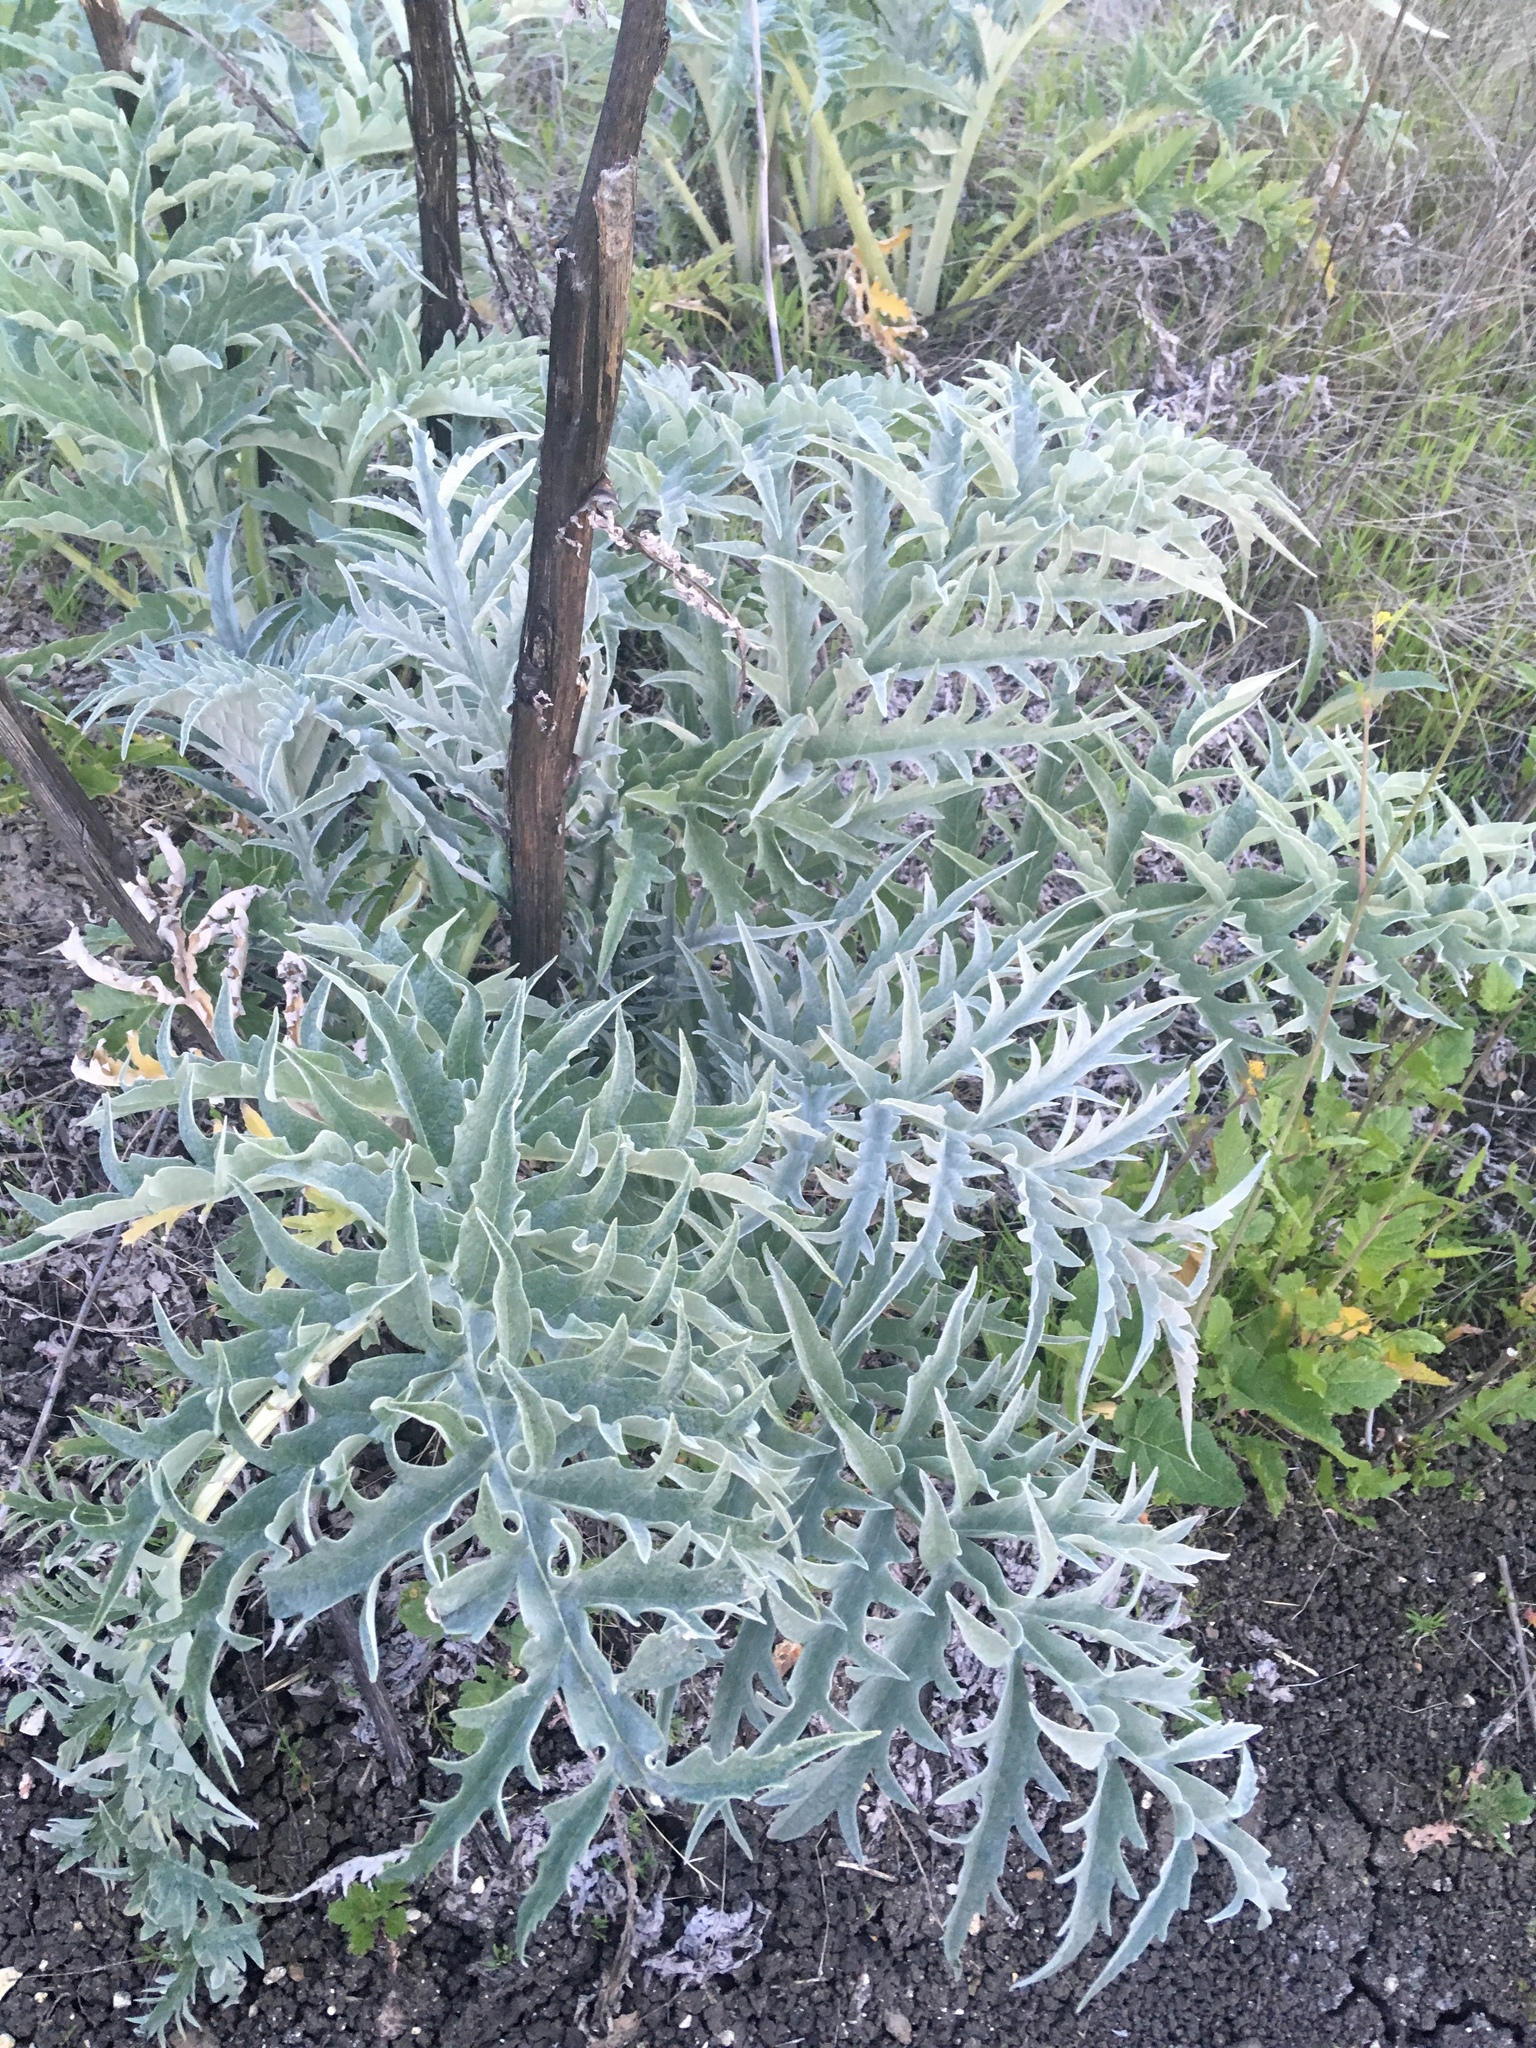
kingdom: Plantae
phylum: Tracheophyta
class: Magnoliopsida
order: Asterales
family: Asteraceae
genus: Cynara
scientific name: Cynara cardunculus
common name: Globe artichoke
